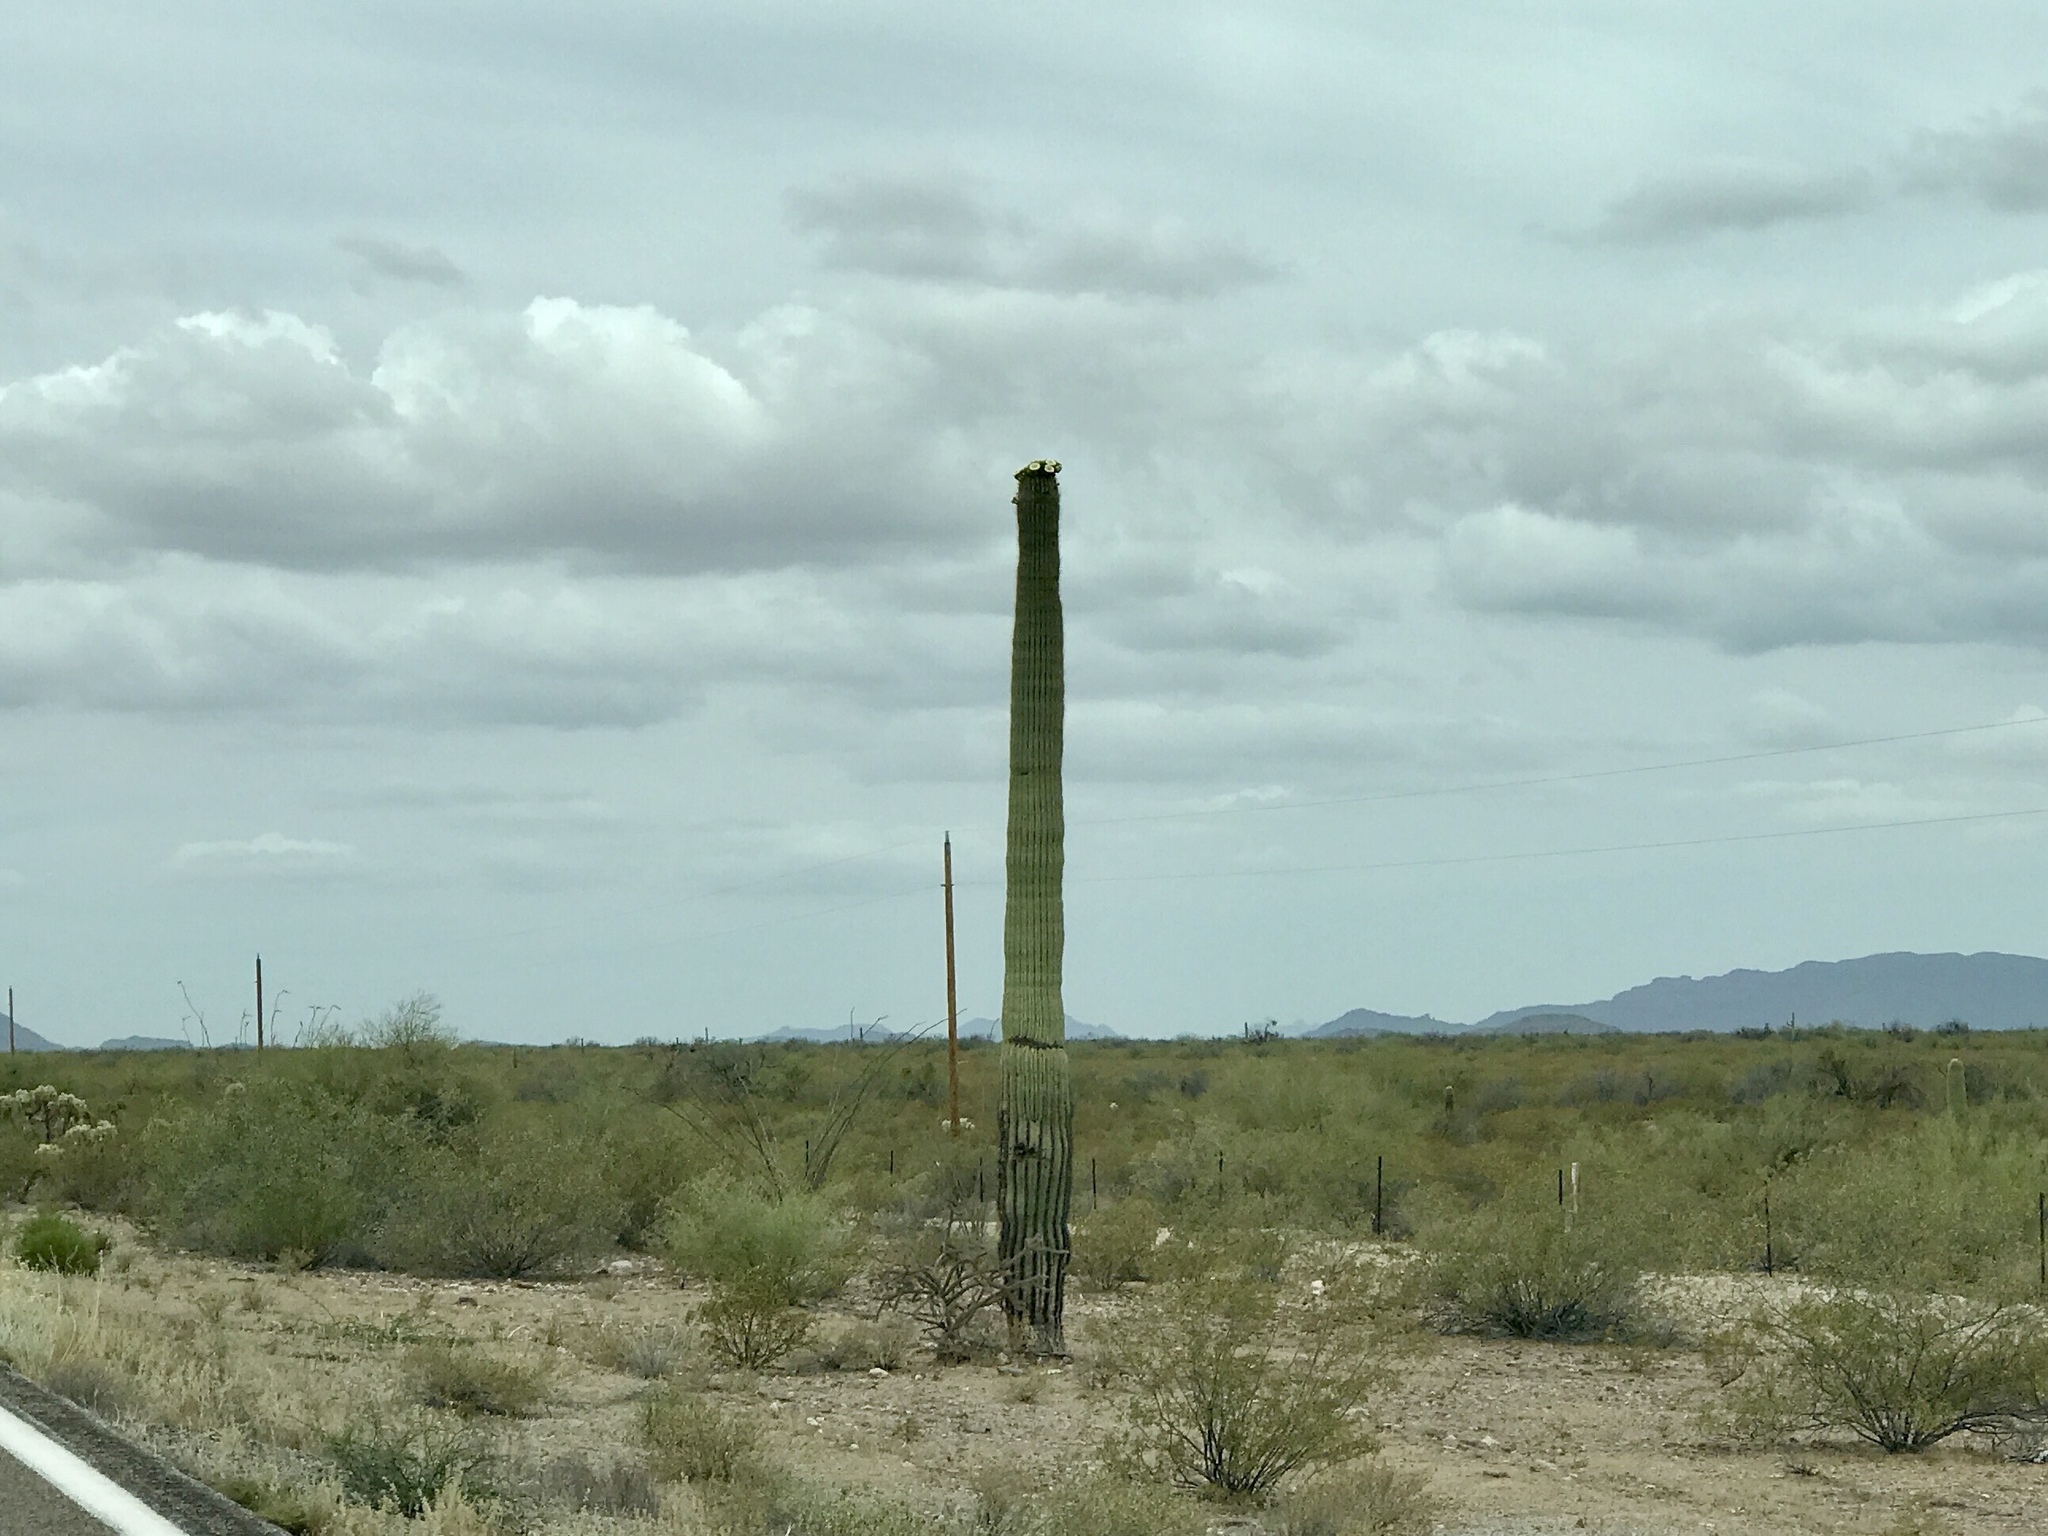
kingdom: Plantae
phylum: Tracheophyta
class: Magnoliopsida
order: Caryophyllales
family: Cactaceae
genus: Carnegiea
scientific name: Carnegiea gigantea
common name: Saguaro
